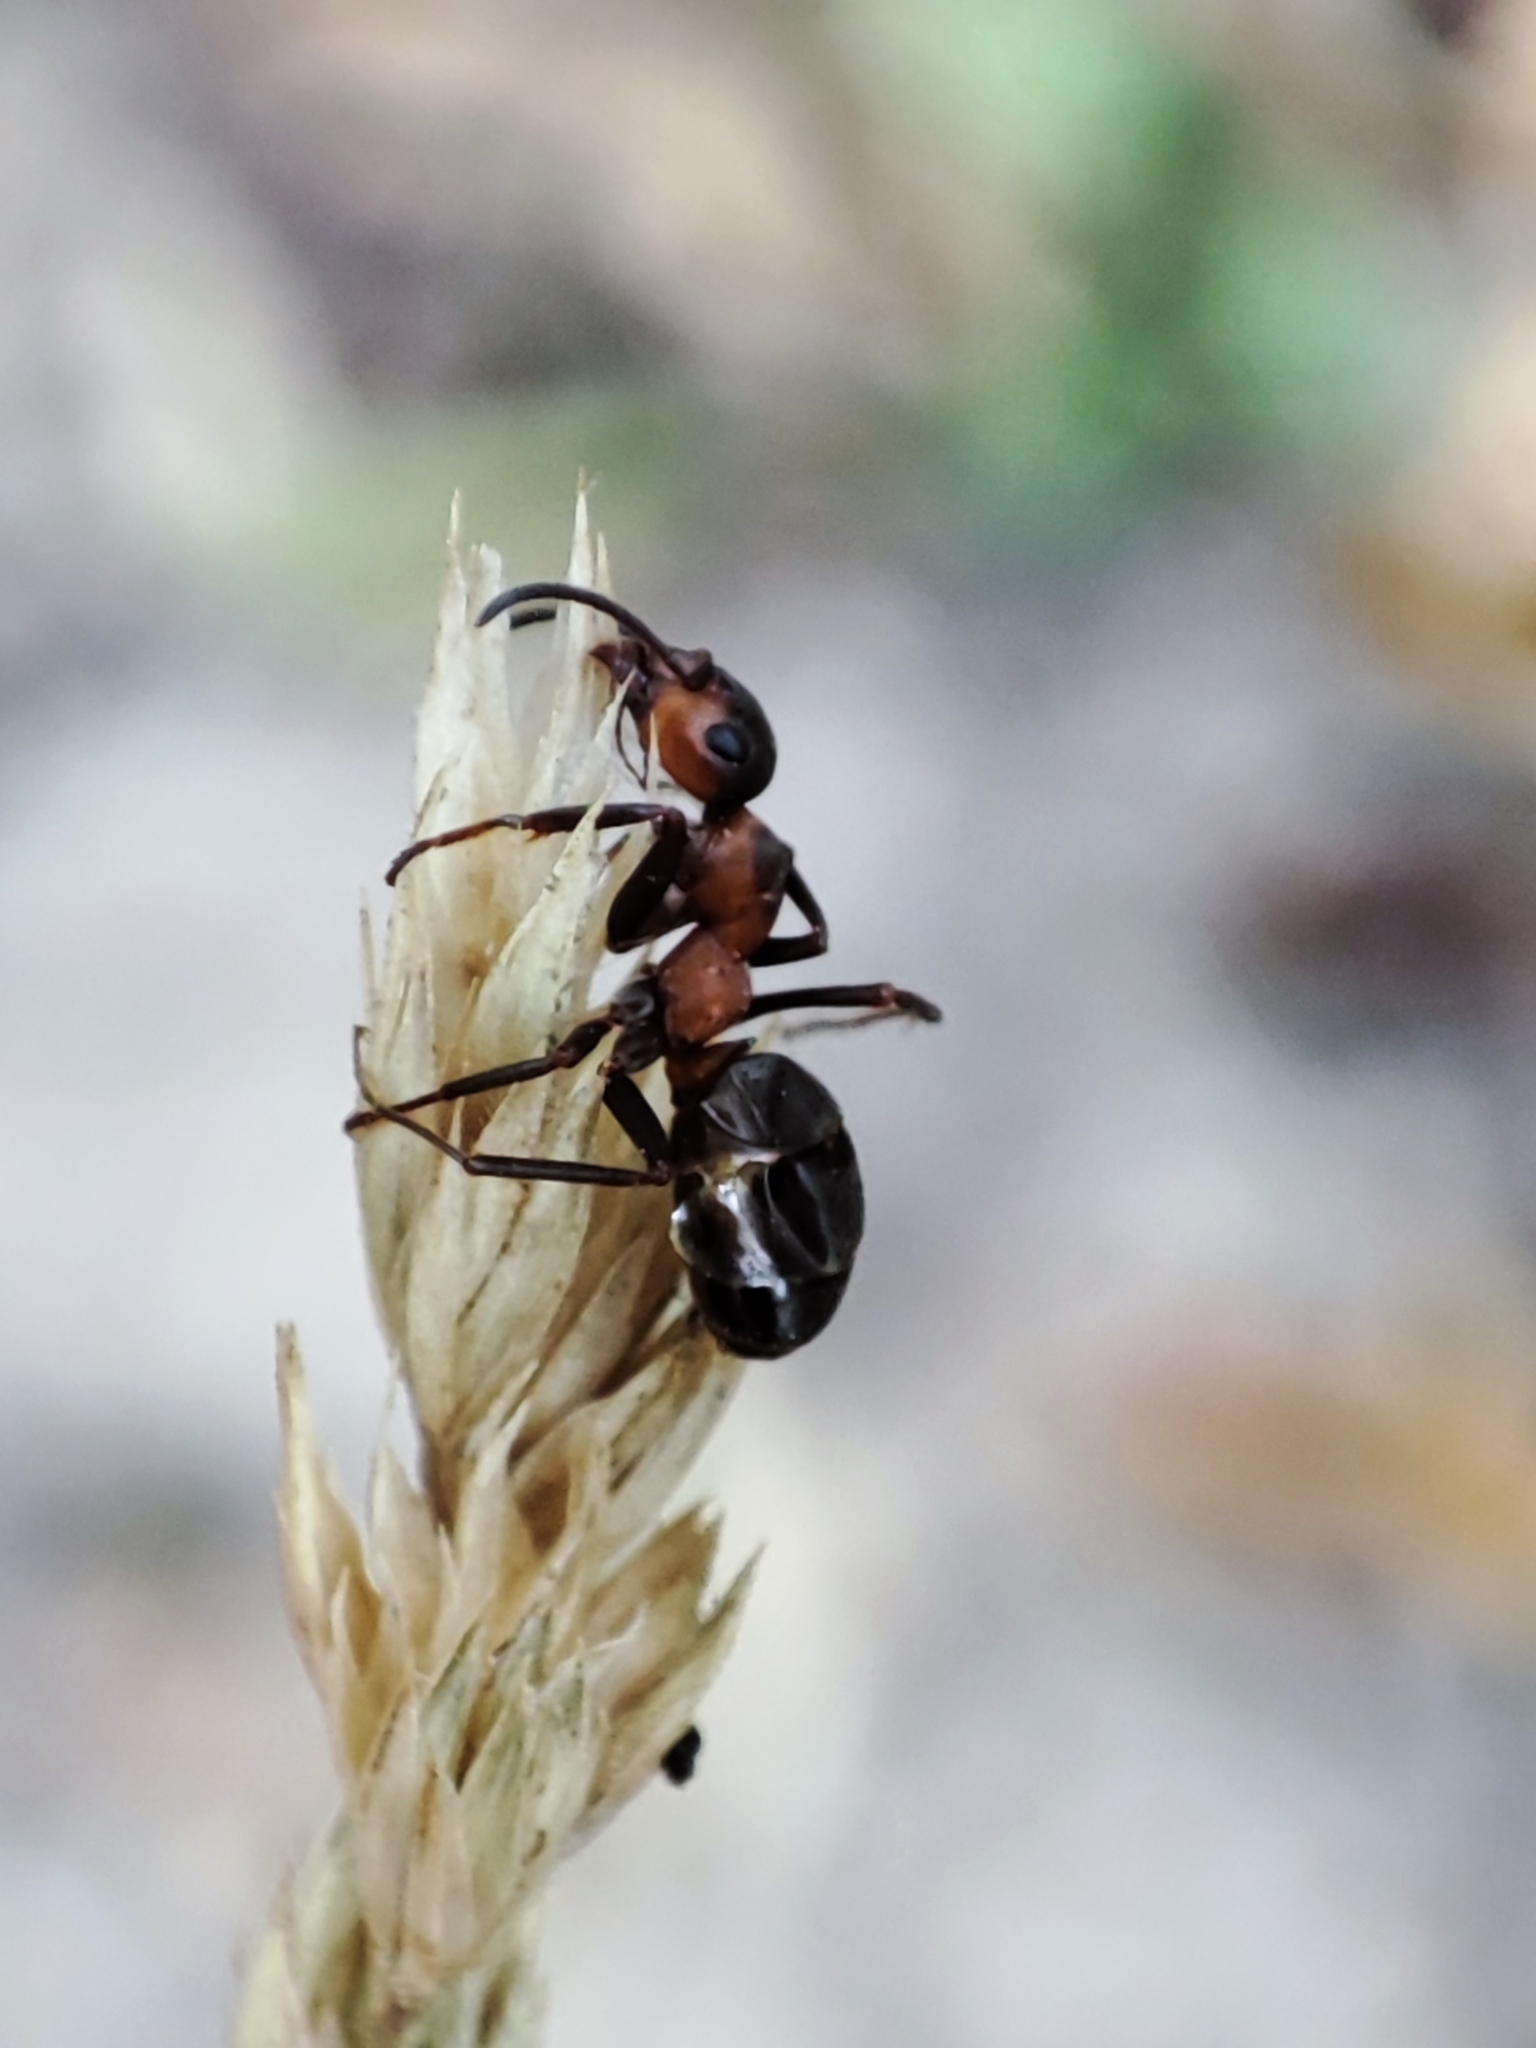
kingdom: Animalia
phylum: Platyhelminthes
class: Trematoda
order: Plagiorchiida
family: Dicrocoeliidae
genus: Dicrocoelium
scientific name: Dicrocoelium dendriticum
